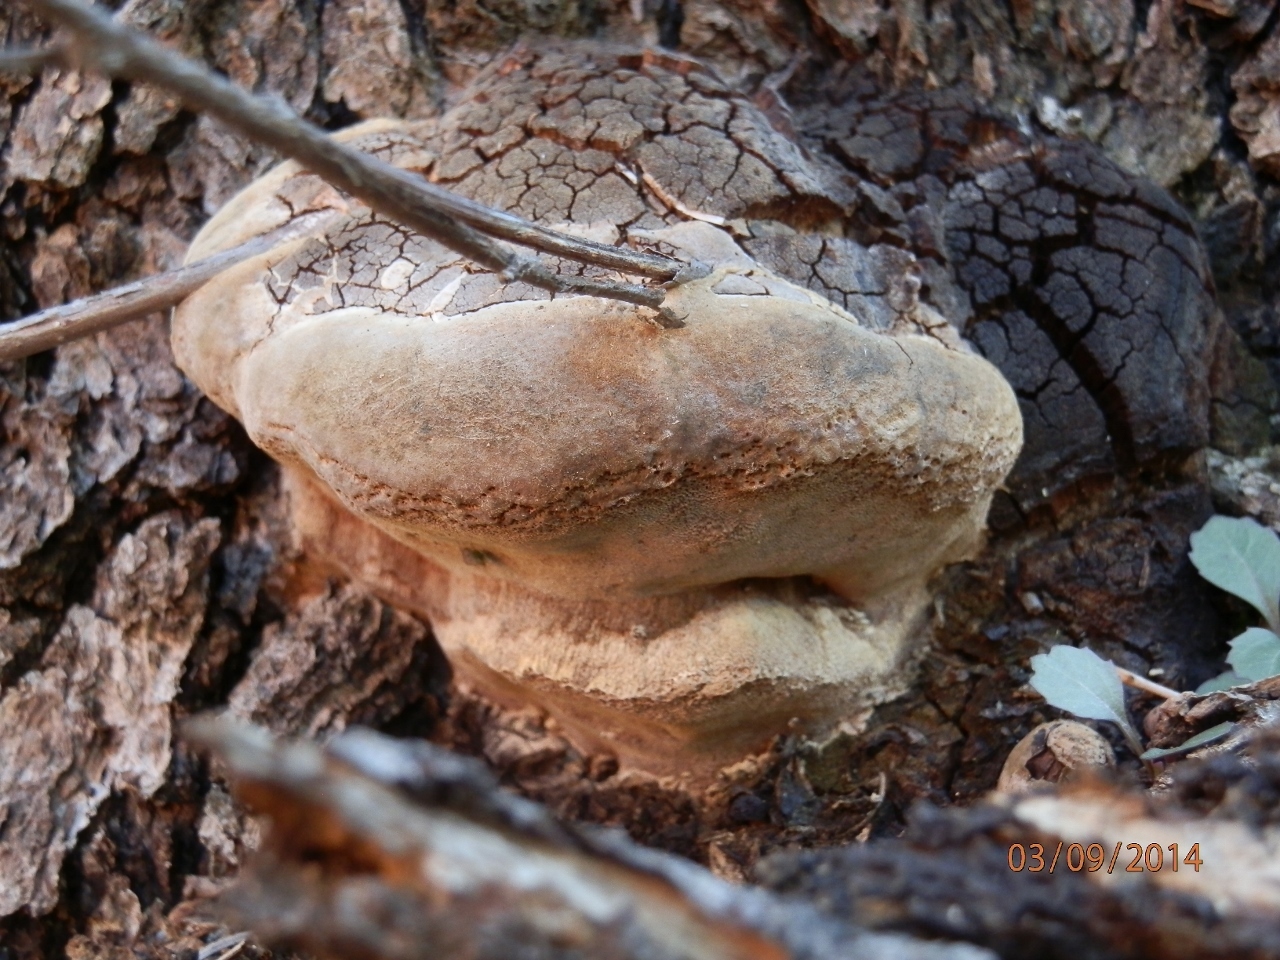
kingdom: Fungi
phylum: Basidiomycota
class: Agaricomycetes
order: Hymenochaetales
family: Hymenochaetaceae
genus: Meganotus
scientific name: Meganotus everhartii
